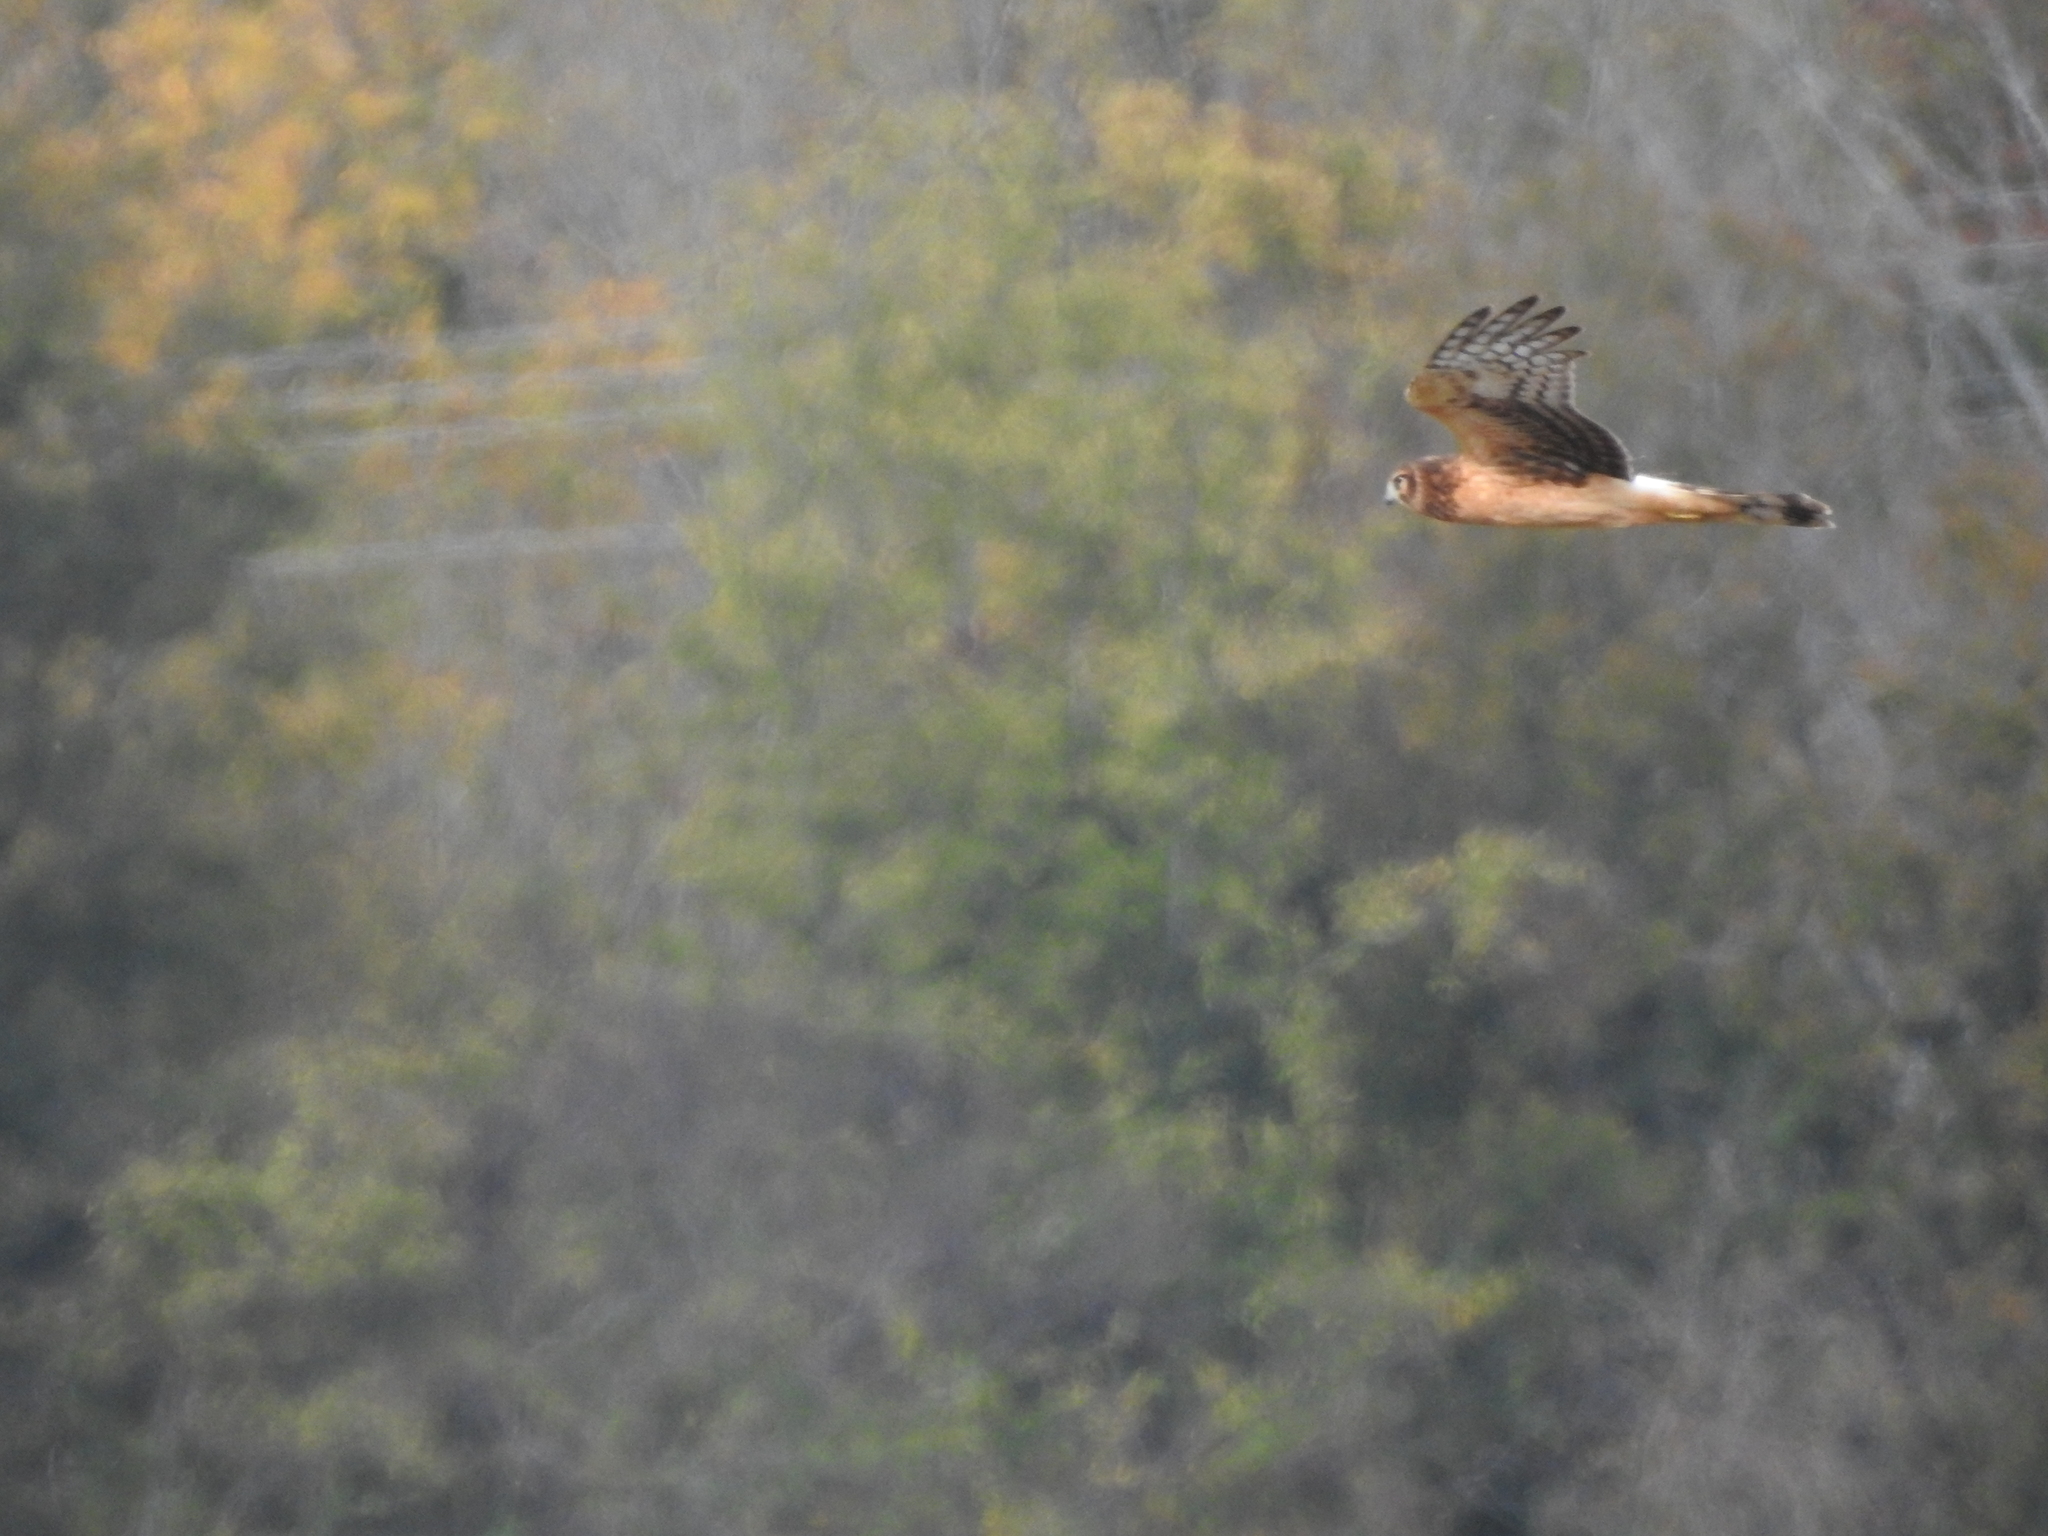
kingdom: Animalia
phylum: Chordata
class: Aves
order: Accipitriformes
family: Accipitridae
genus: Circus
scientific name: Circus cyaneus
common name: Hen harrier
